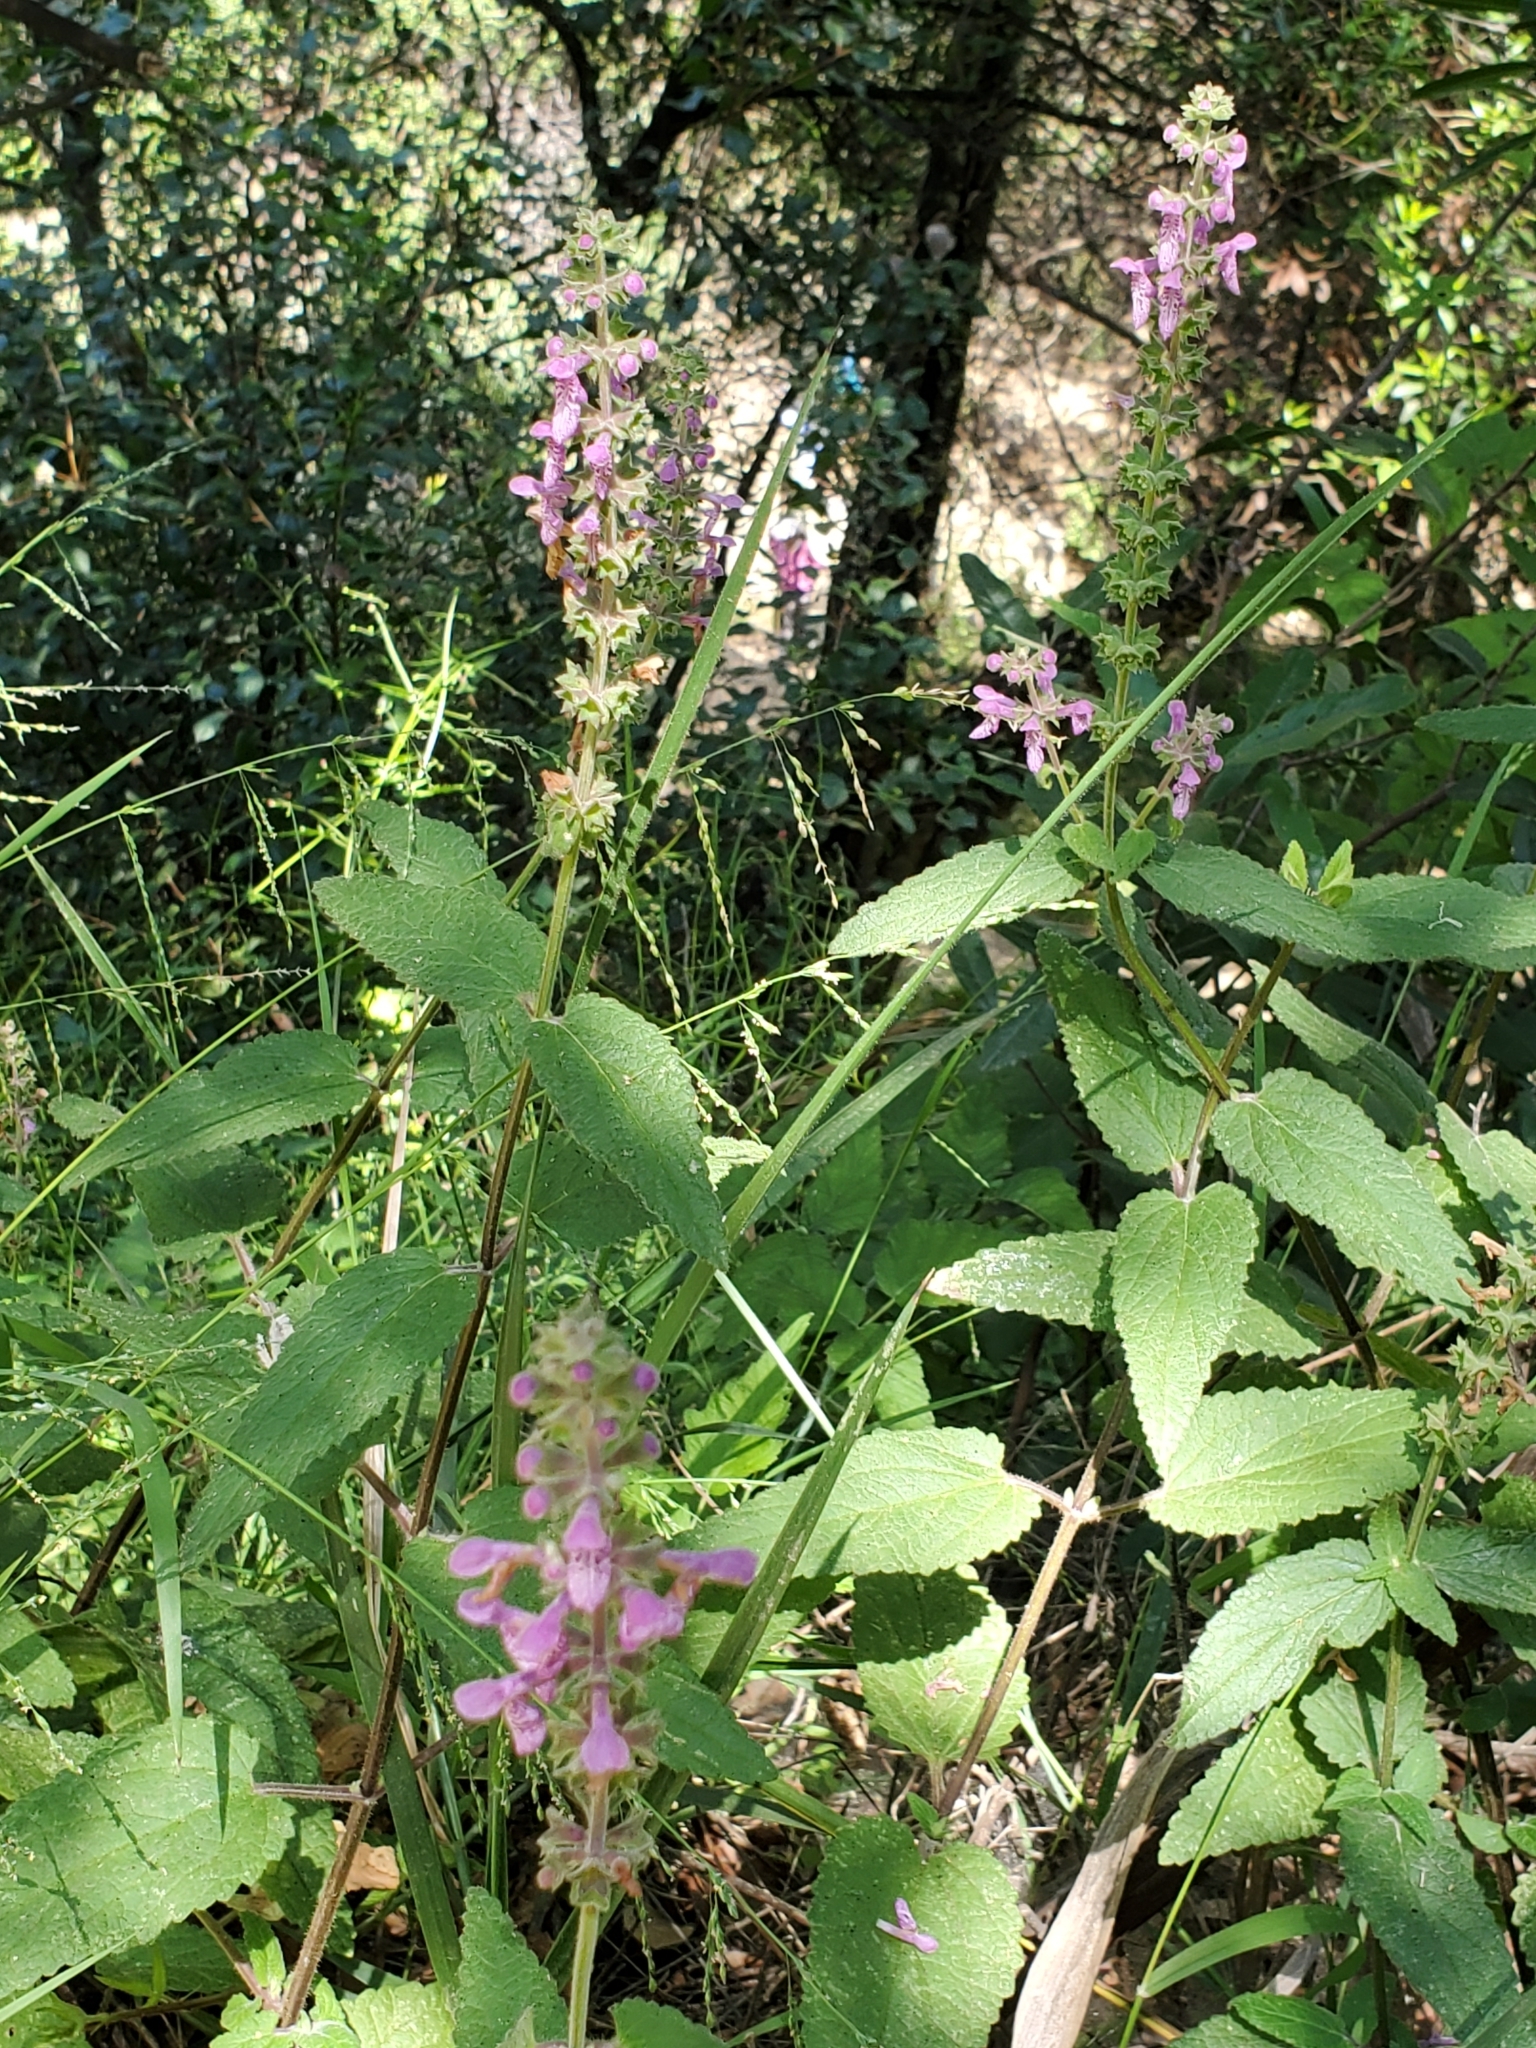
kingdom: Plantae
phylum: Tracheophyta
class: Magnoliopsida
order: Lamiales
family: Lamiaceae
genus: Stachys
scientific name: Stachys bullata
